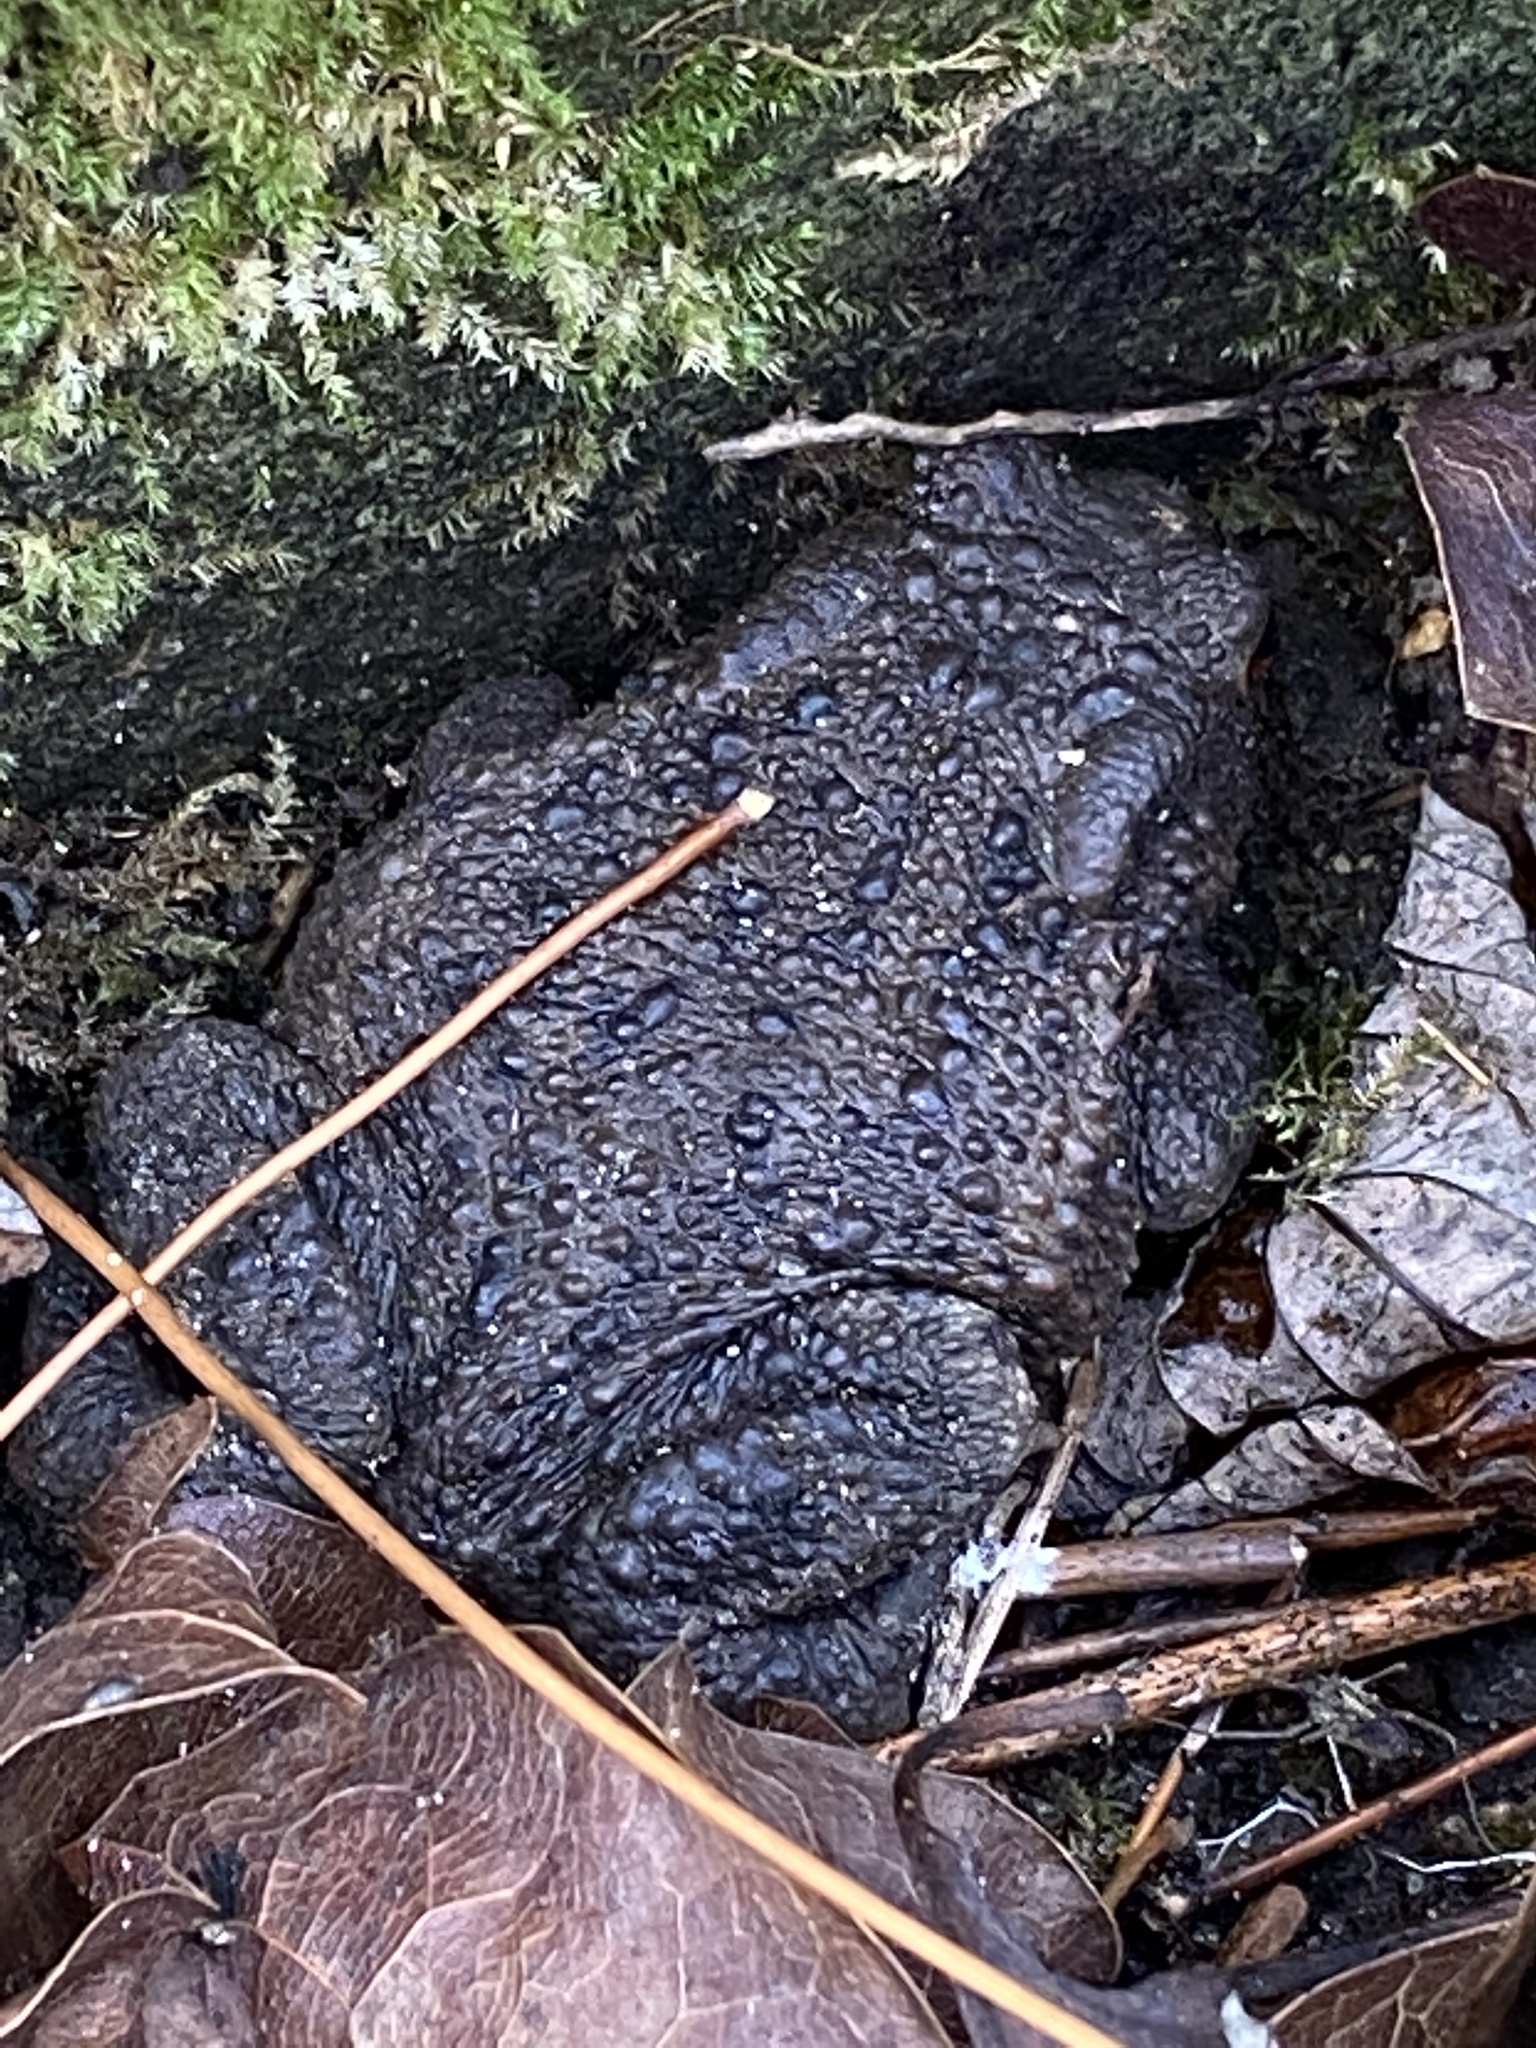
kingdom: Animalia
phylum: Chordata
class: Amphibia
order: Anura
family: Bufonidae
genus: Bufo
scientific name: Bufo bufo
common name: Common toad
